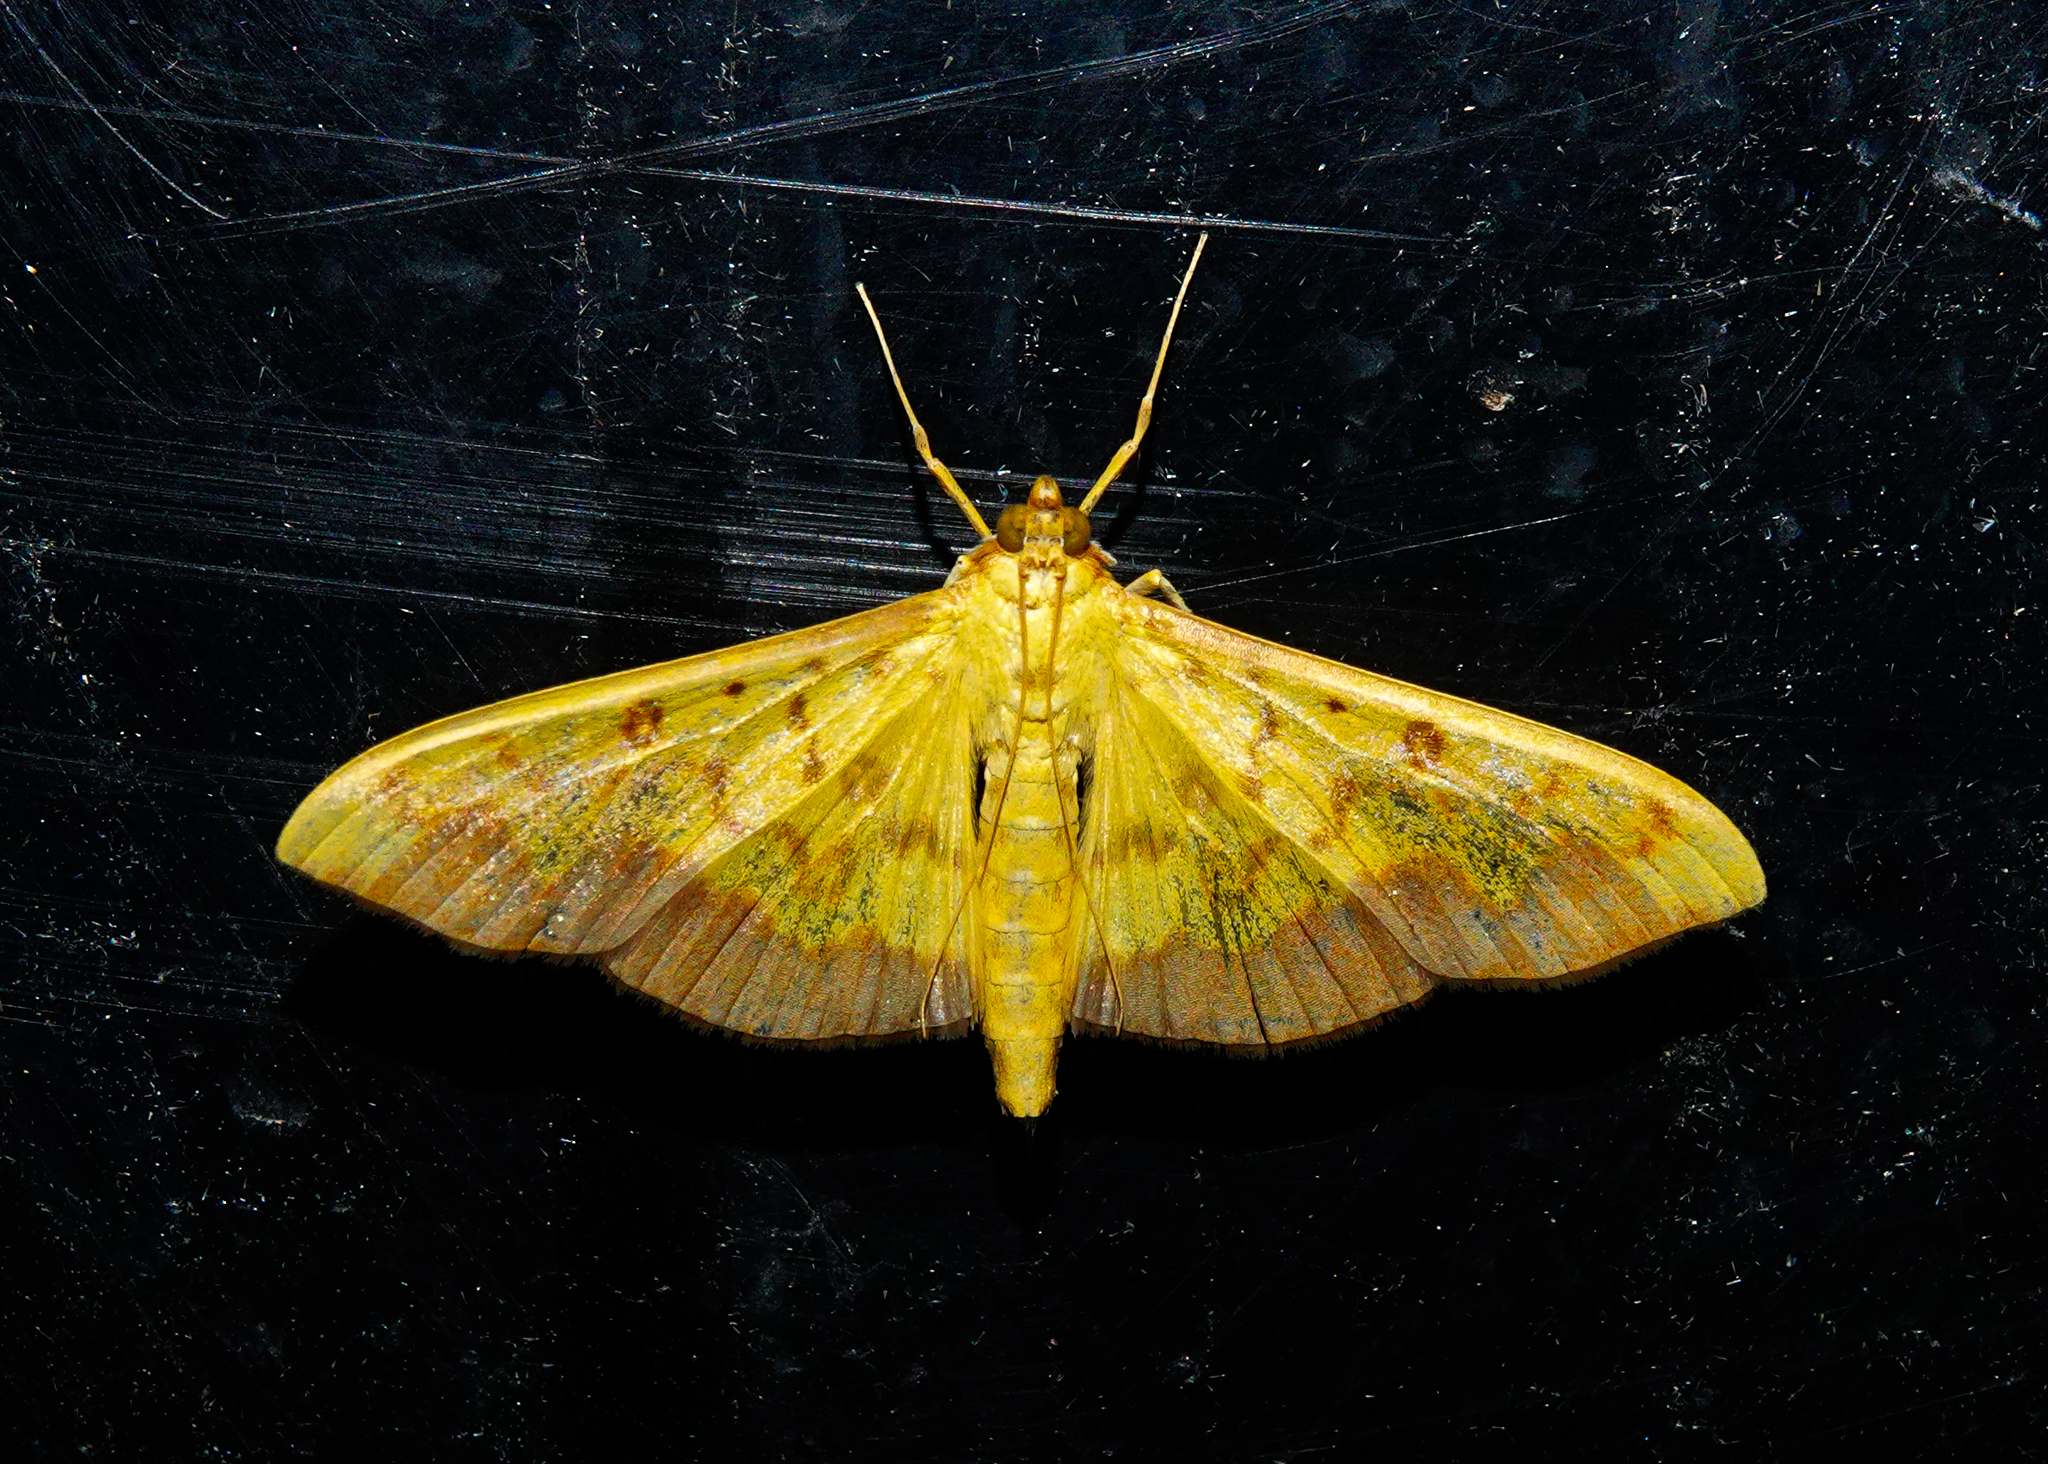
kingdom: Animalia
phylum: Arthropoda
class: Insecta
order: Lepidoptera
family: Crambidae
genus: Botyodes
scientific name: Botyodes asialis
